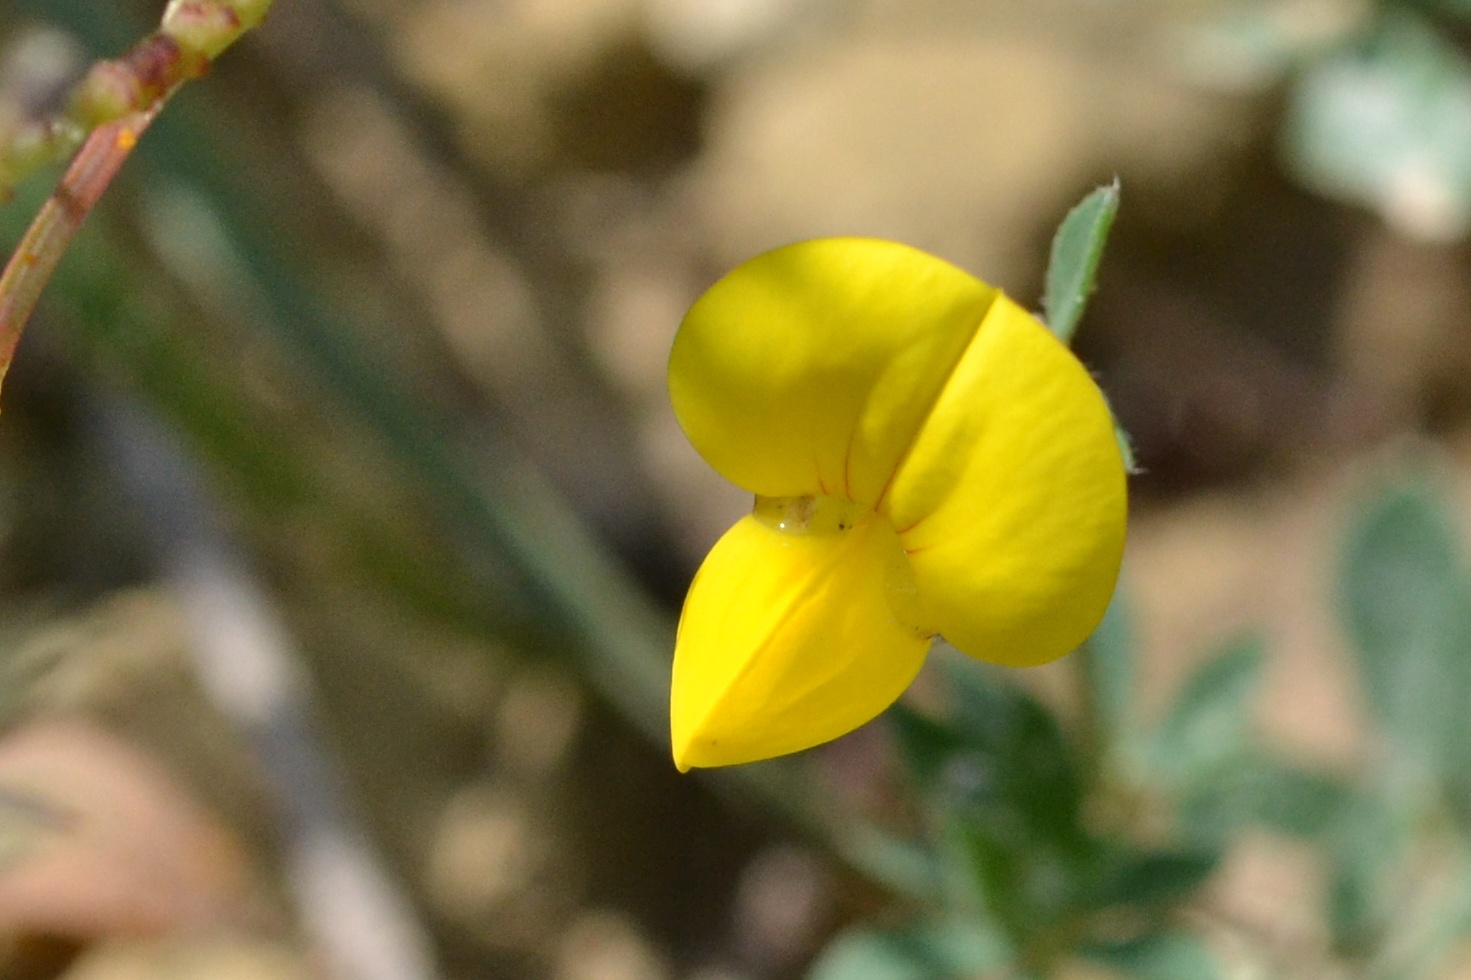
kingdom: Plantae
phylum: Tracheophyta
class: Magnoliopsida
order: Fabales
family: Fabaceae
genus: Lotus
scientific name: Lotus corniculatus
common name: Common bird's-foot-trefoil
